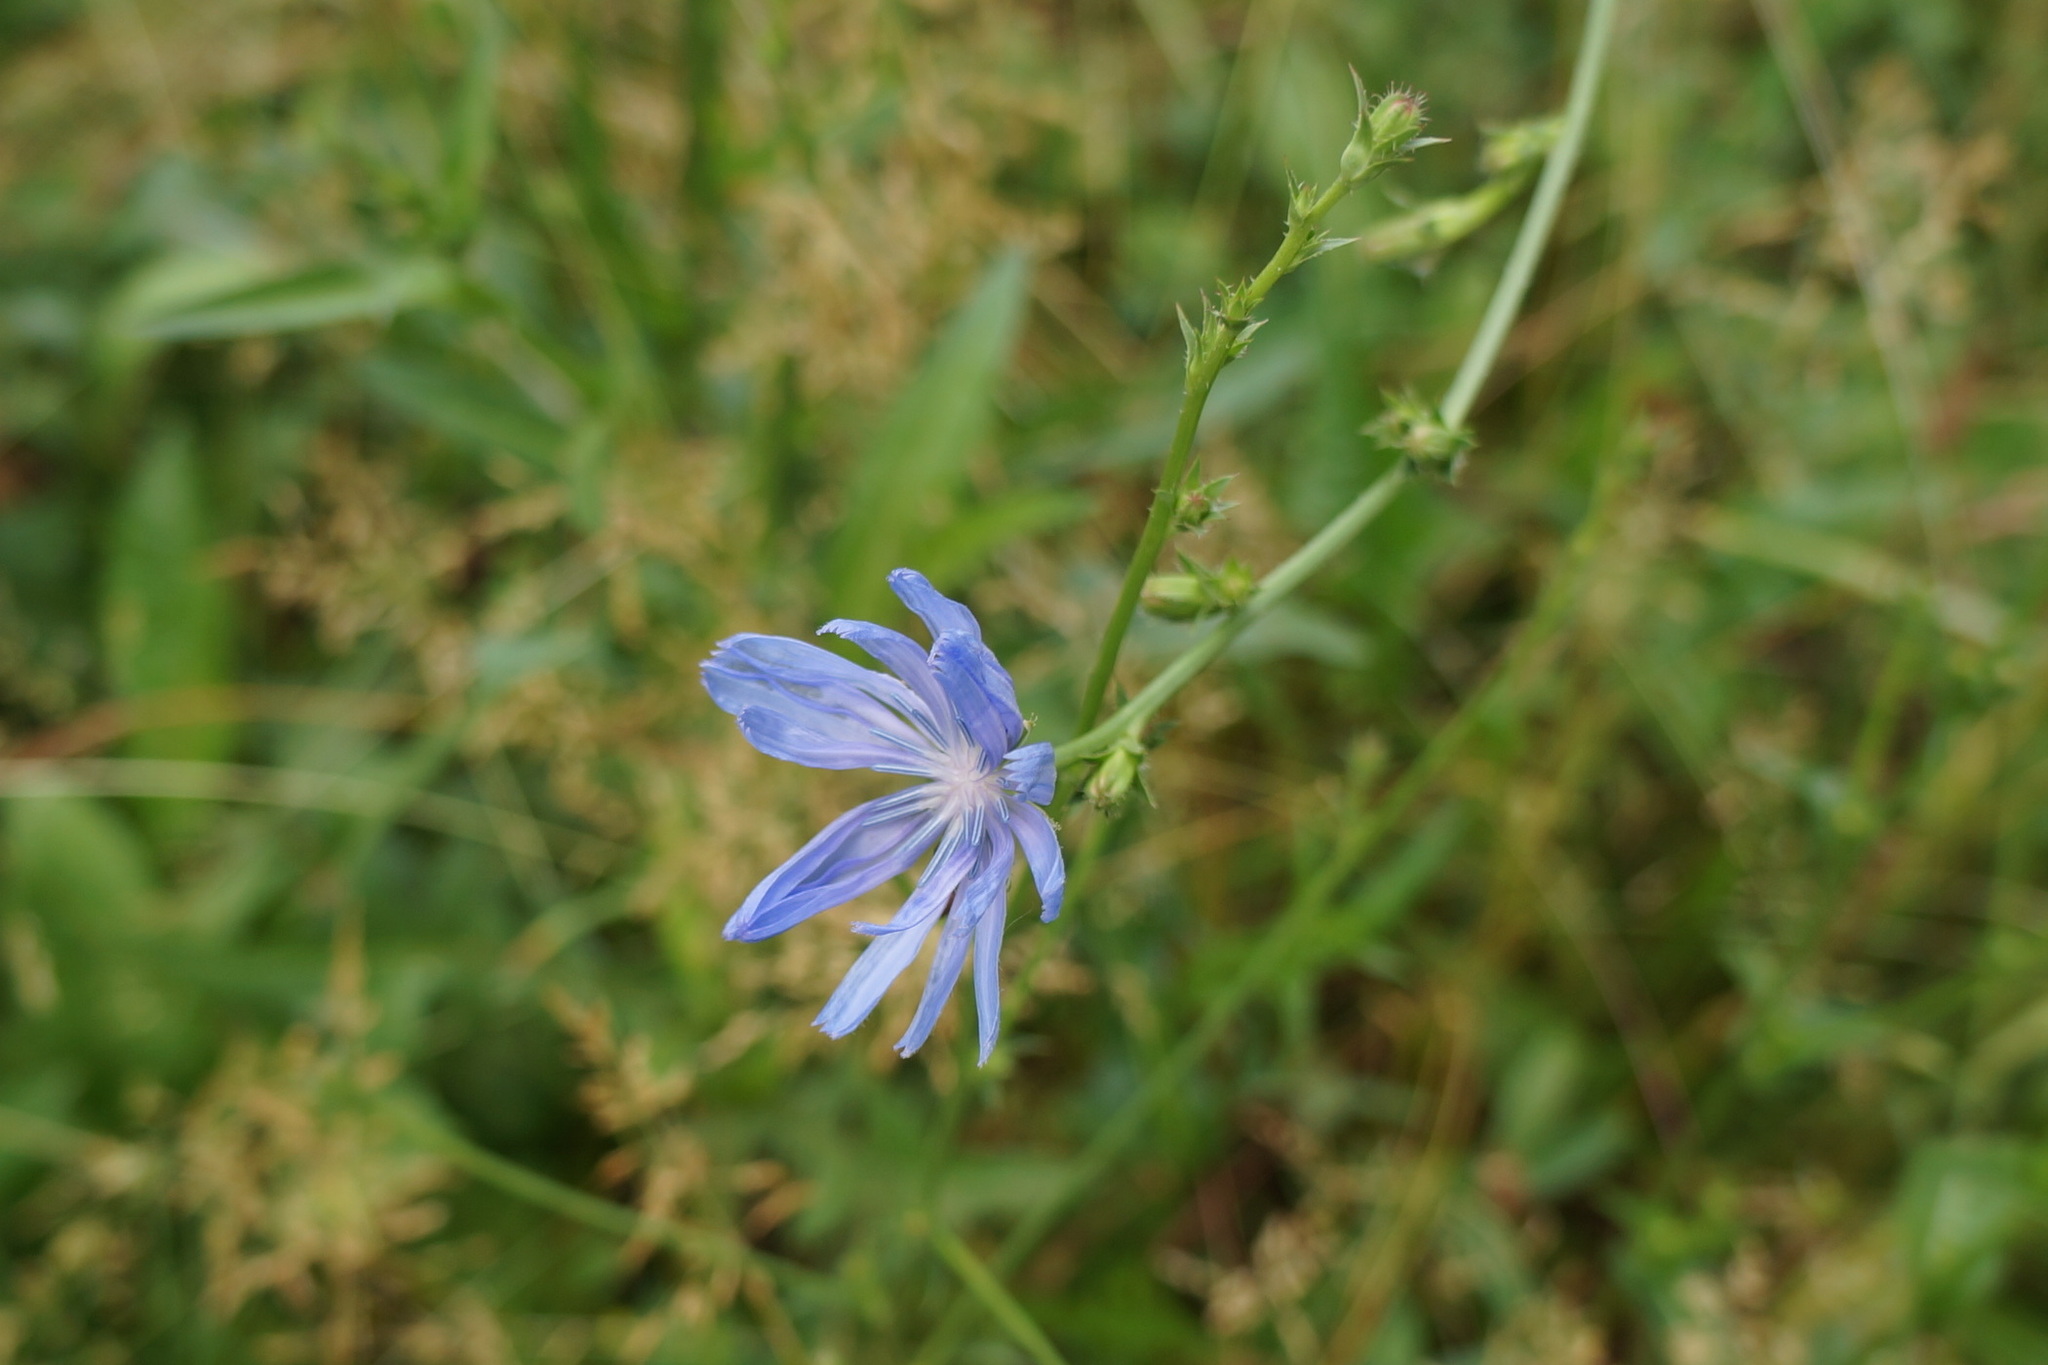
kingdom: Plantae
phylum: Tracheophyta
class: Magnoliopsida
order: Asterales
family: Asteraceae
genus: Cichorium
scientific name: Cichorium intybus
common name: Chicory
